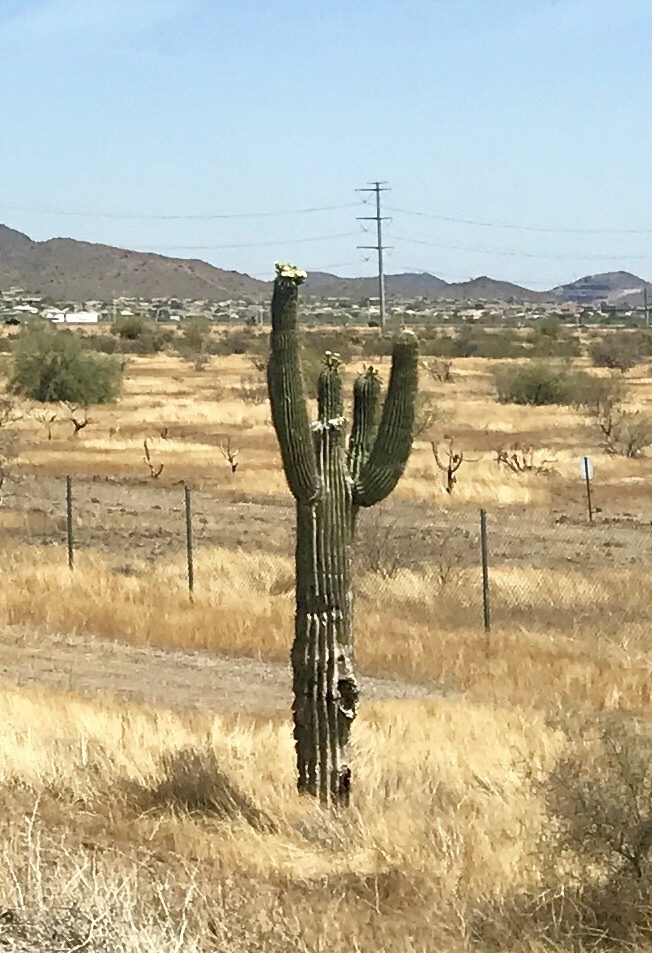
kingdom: Plantae
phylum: Tracheophyta
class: Magnoliopsida
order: Caryophyllales
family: Cactaceae
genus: Carnegiea
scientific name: Carnegiea gigantea
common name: Saguaro
